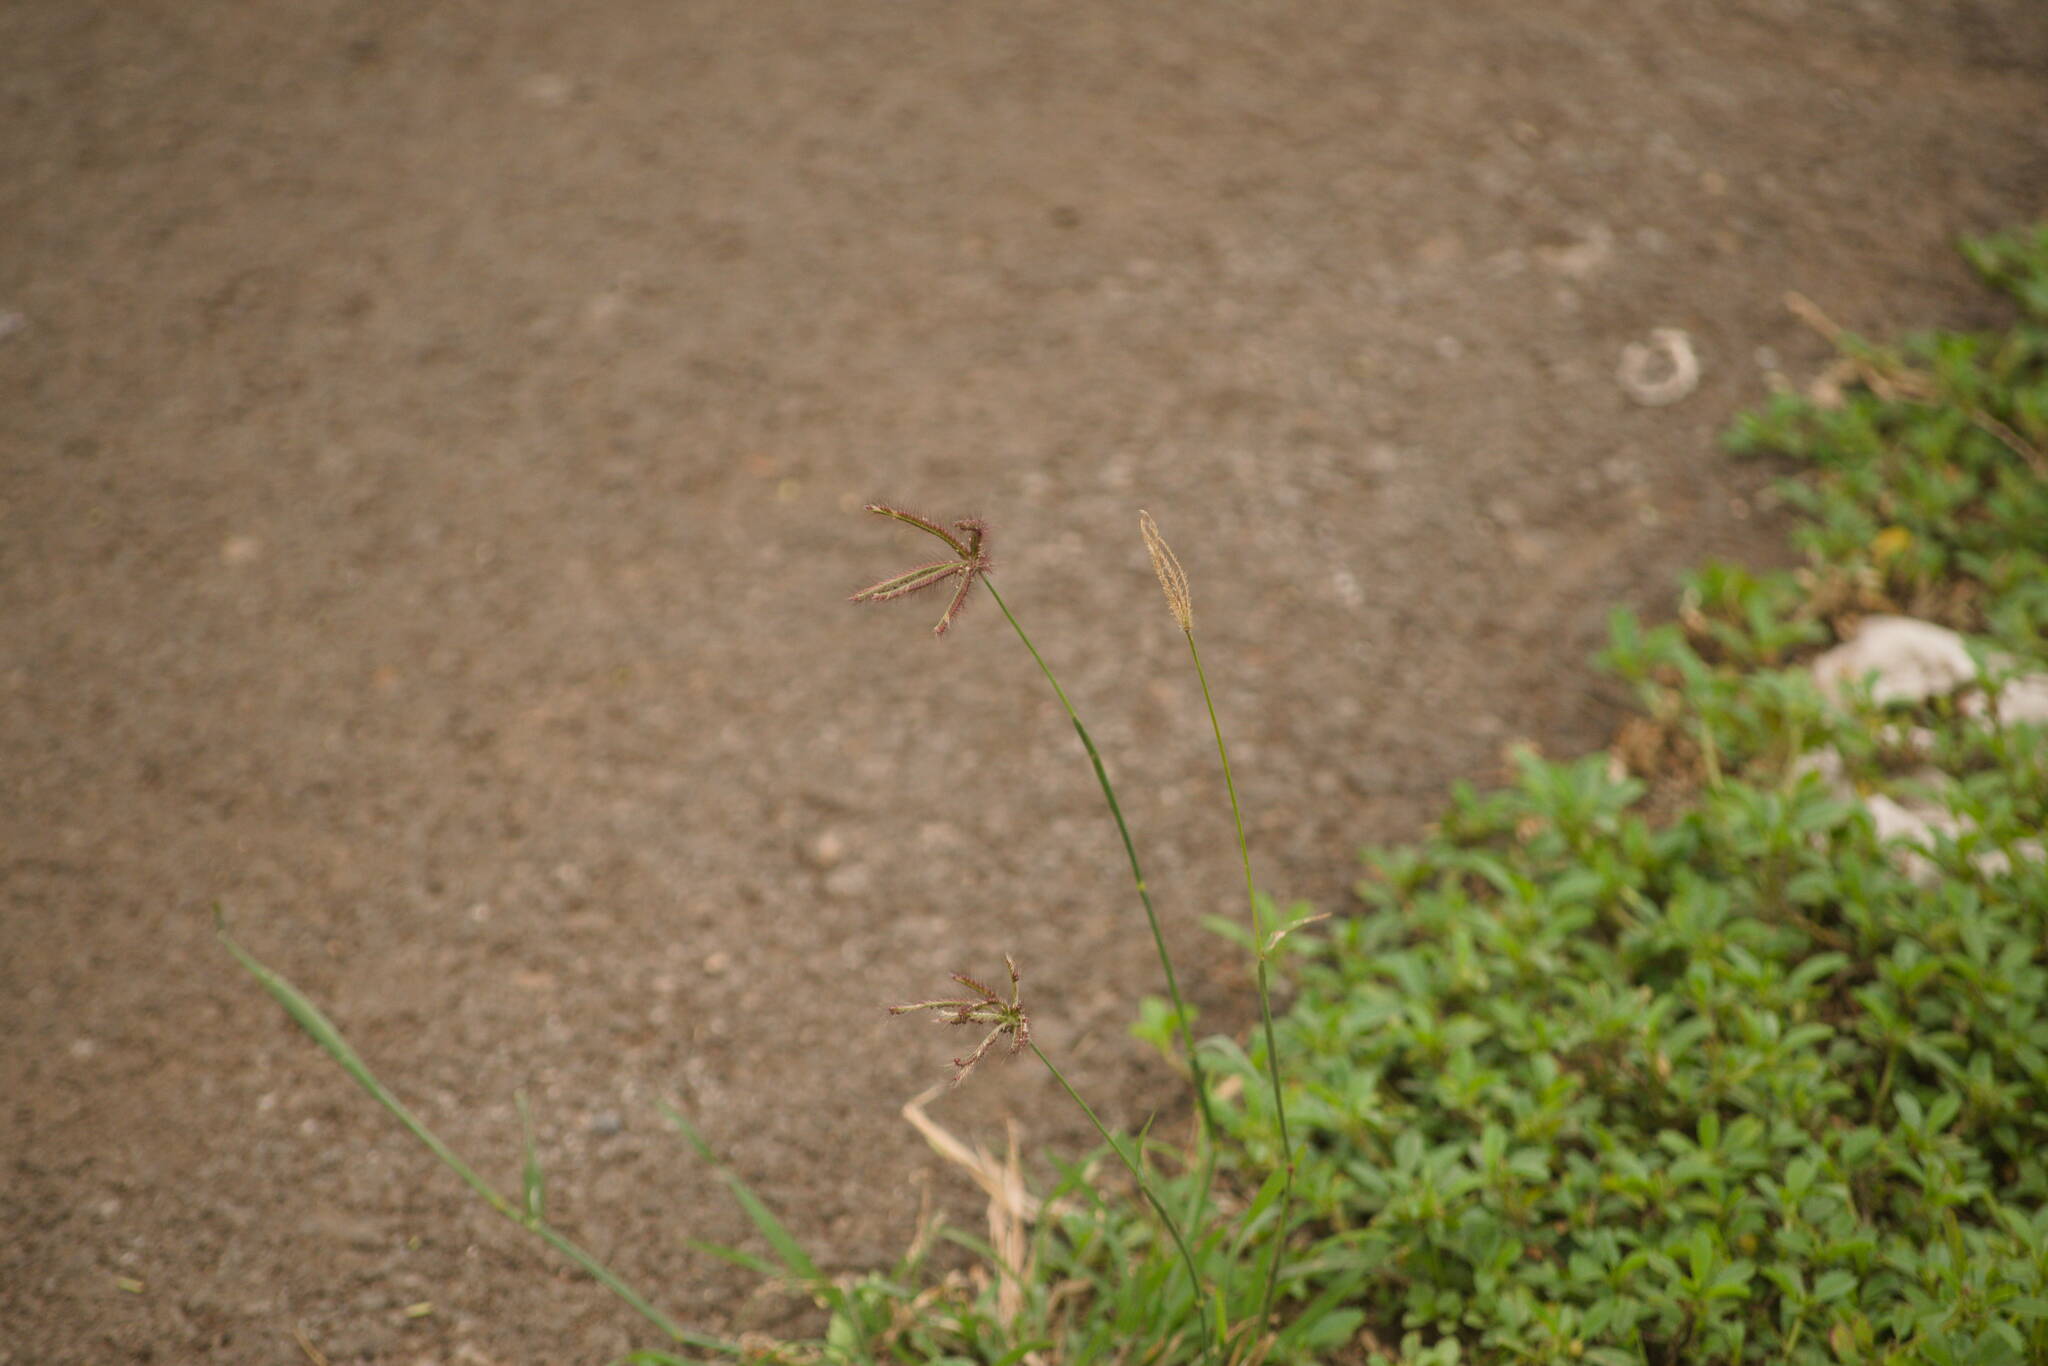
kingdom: Plantae
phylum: Tracheophyta
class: Liliopsida
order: Poales
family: Poaceae
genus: Chloris
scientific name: Chloris barbata
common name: Swollen fingergrass
